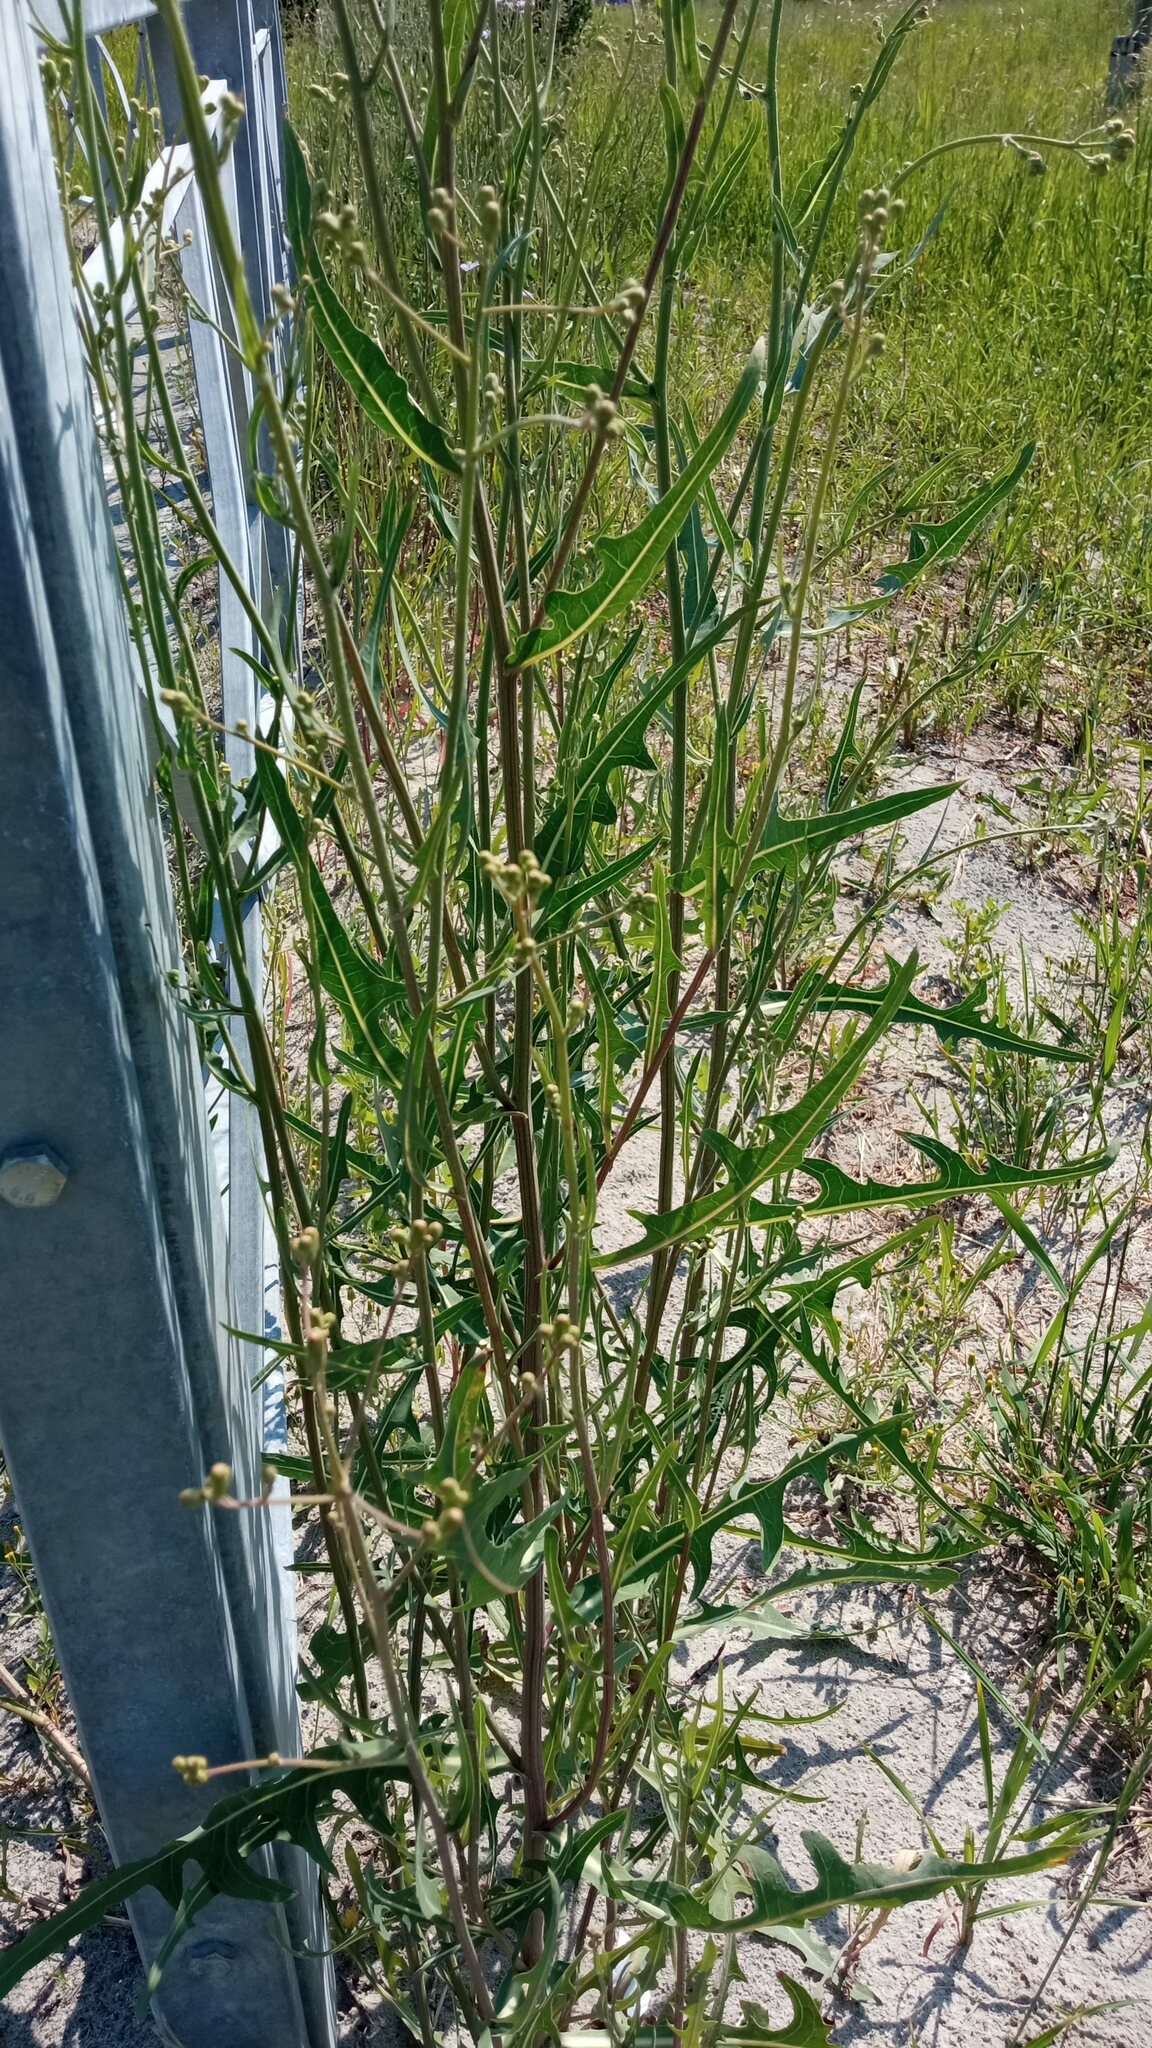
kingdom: Plantae
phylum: Tracheophyta
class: Magnoliopsida
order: Asterales
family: Asteraceae
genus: Lactuca
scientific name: Lactuca tatarica
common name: Blue lettuce
